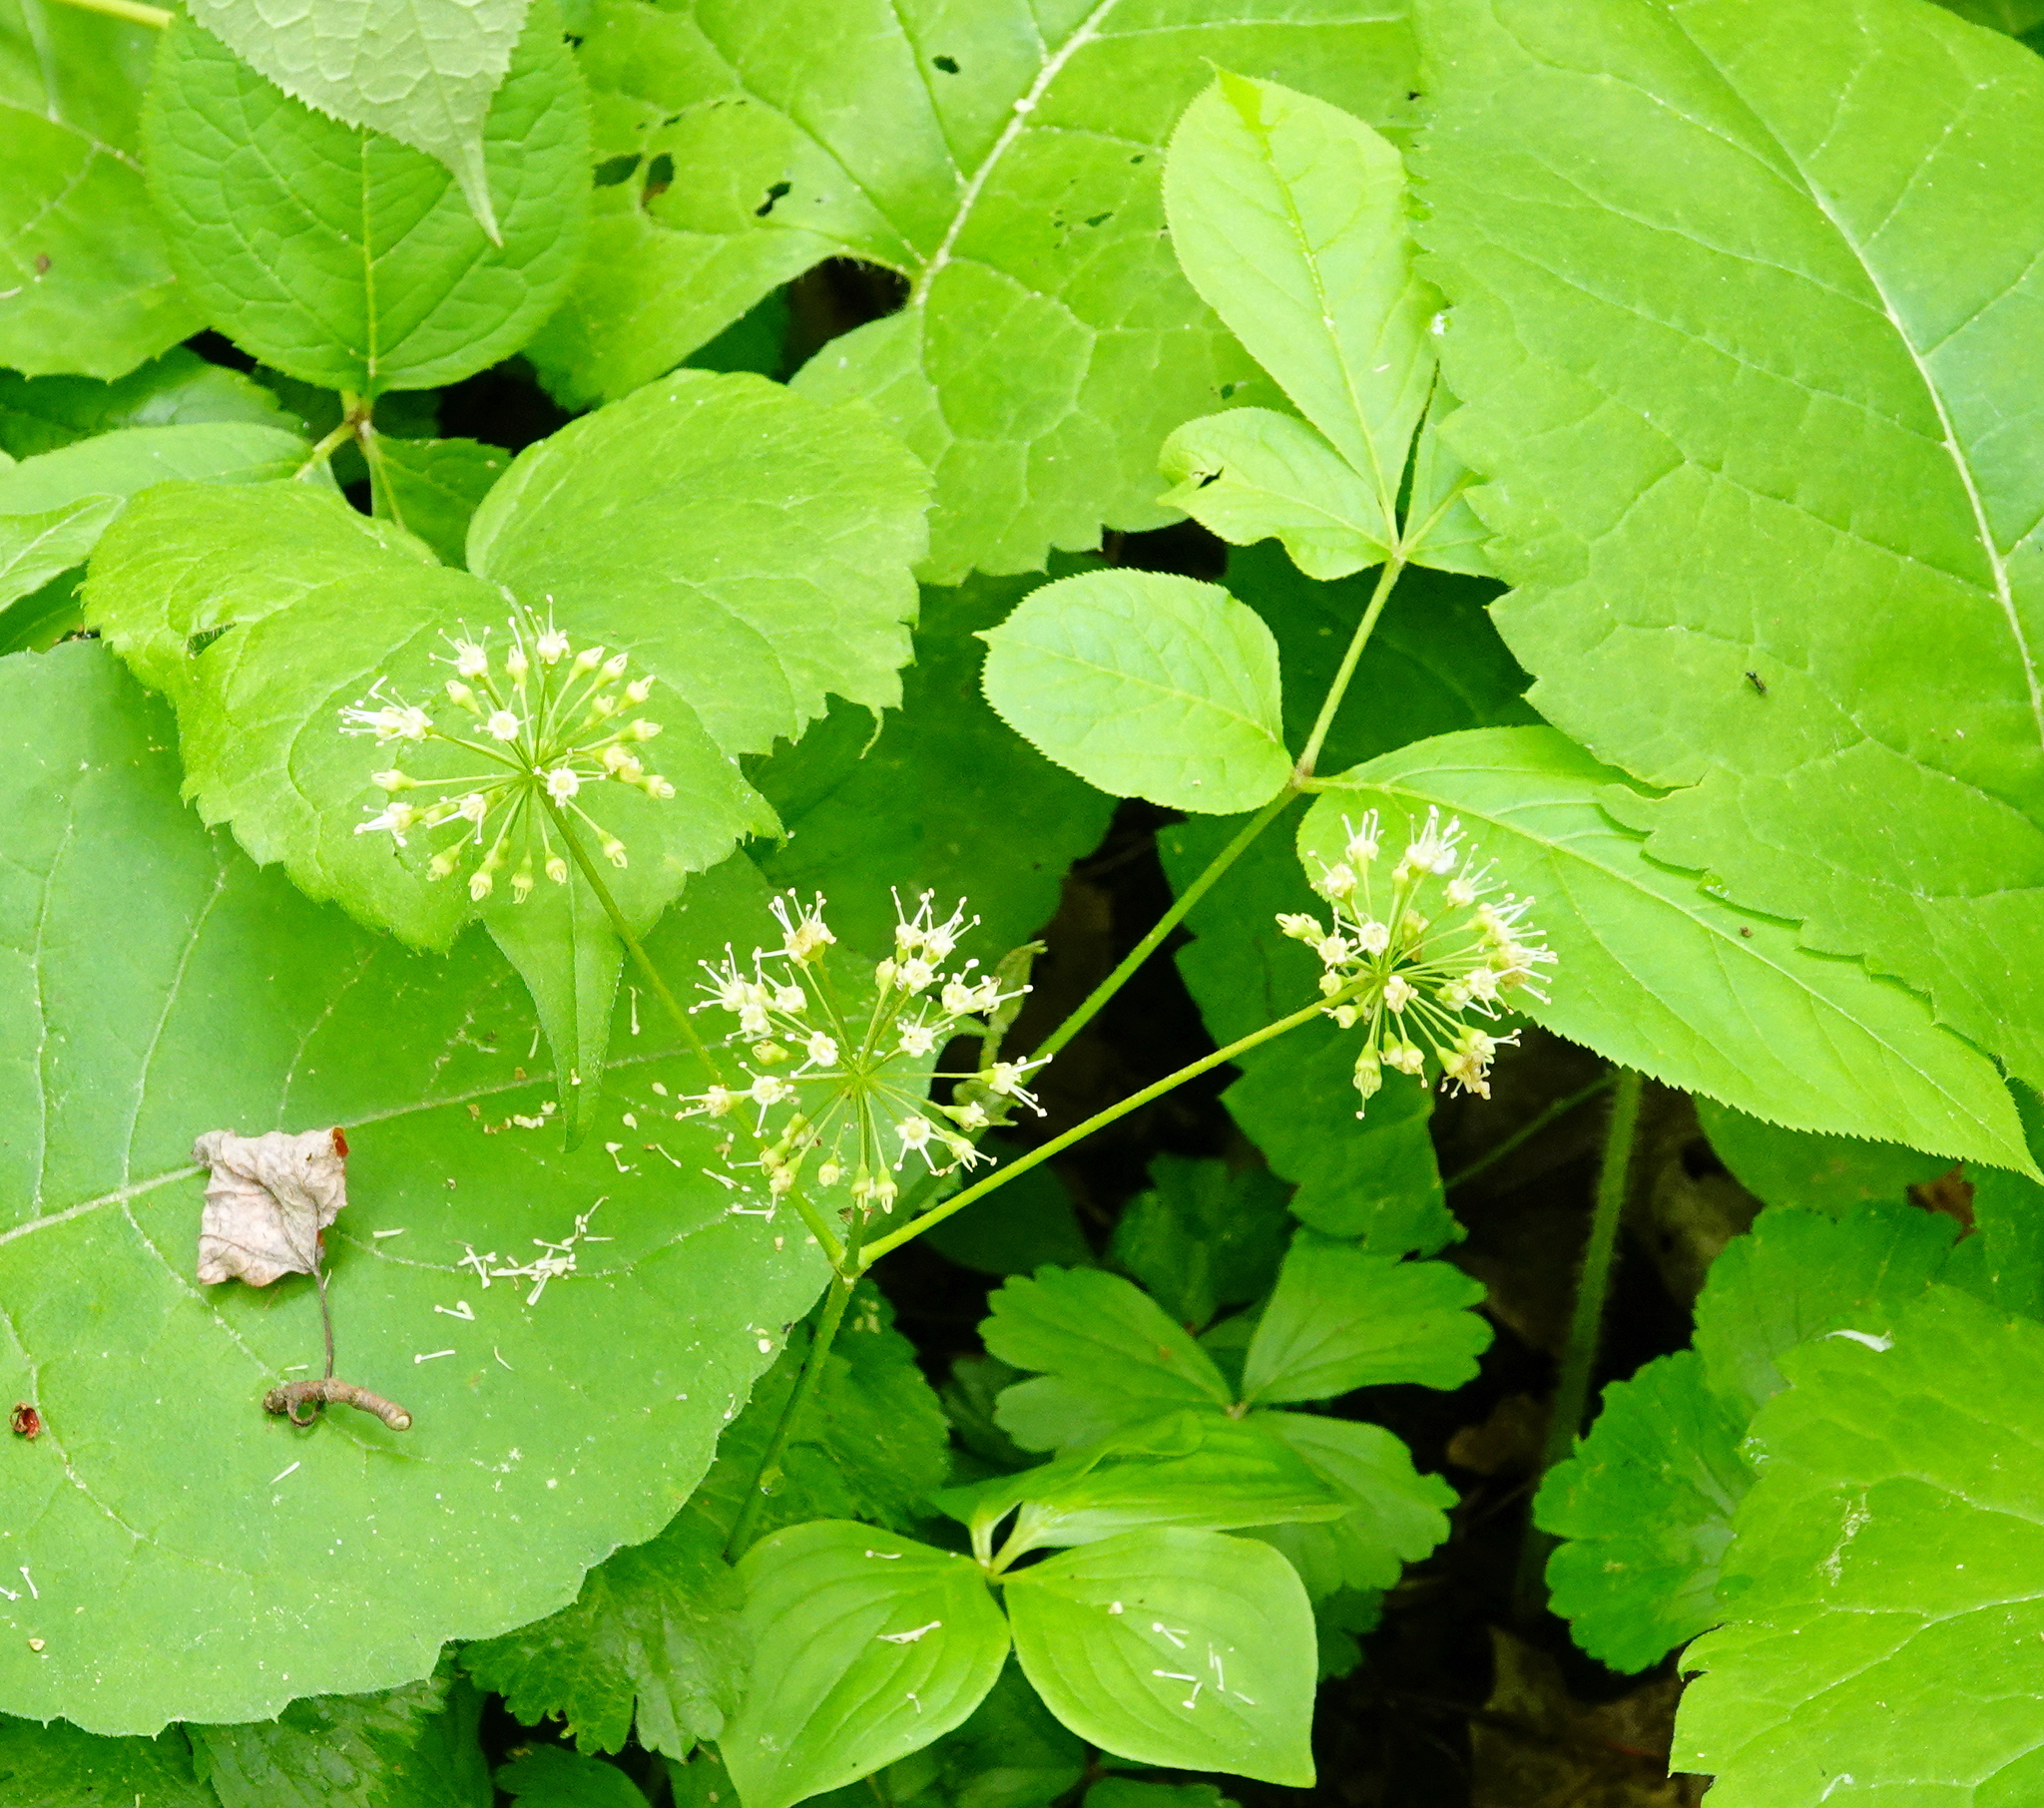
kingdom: Plantae
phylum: Tracheophyta
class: Magnoliopsida
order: Apiales
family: Araliaceae
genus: Aralia
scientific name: Aralia nudicaulis
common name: Wild sarsaparilla
